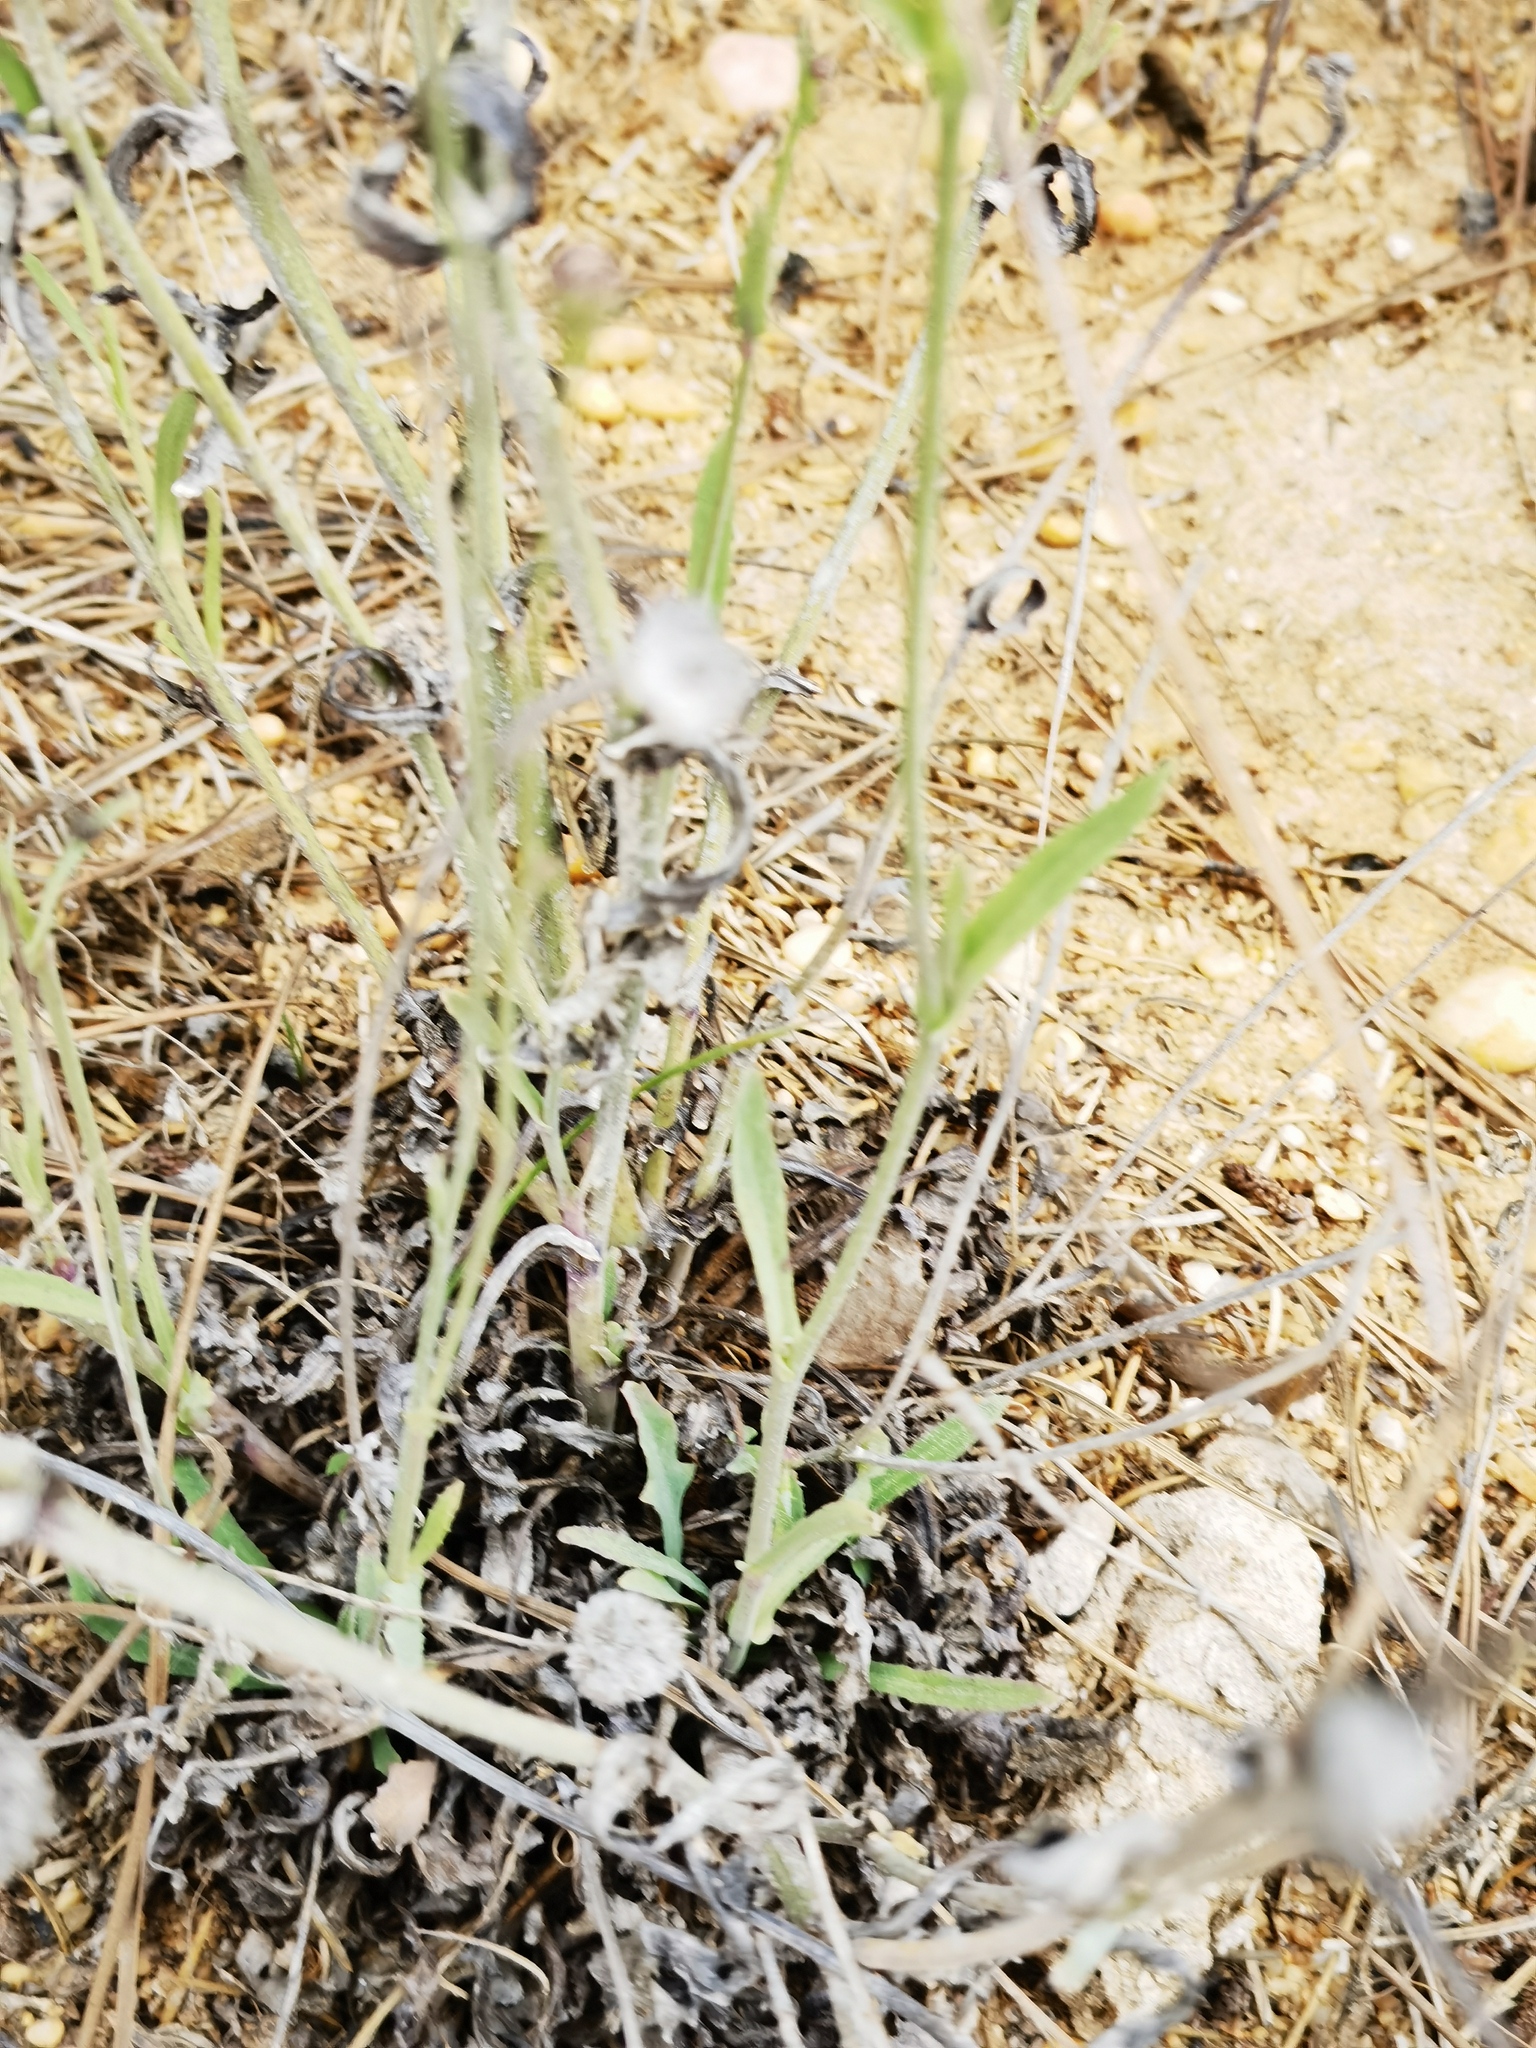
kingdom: Plantae
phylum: Tracheophyta
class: Magnoliopsida
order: Asterales
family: Asteraceae
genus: Reichardia
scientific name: Reichardia picroides
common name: Common brighteyes
